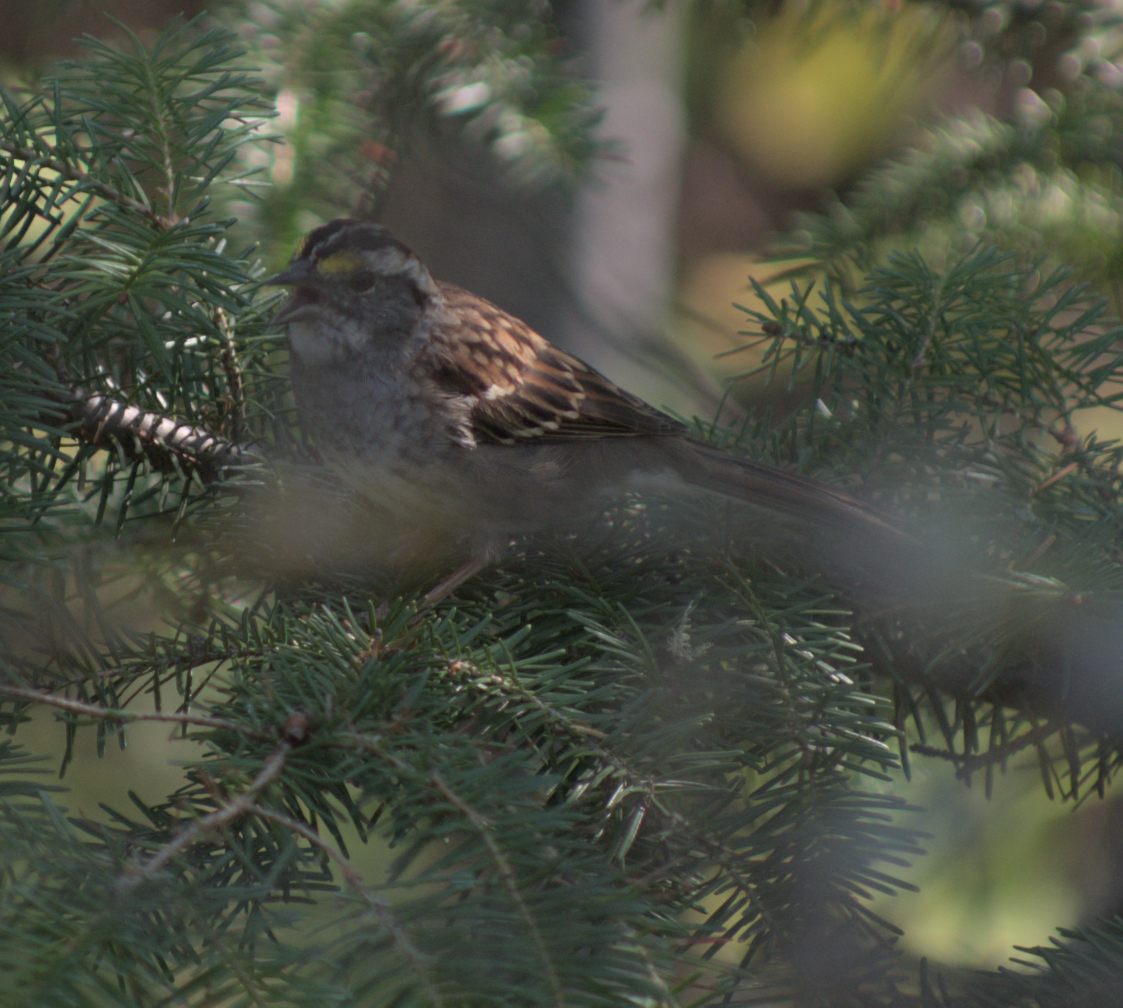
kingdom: Animalia
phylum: Chordata
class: Aves
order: Passeriformes
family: Passerellidae
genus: Zonotrichia
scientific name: Zonotrichia albicollis
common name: White-throated sparrow
